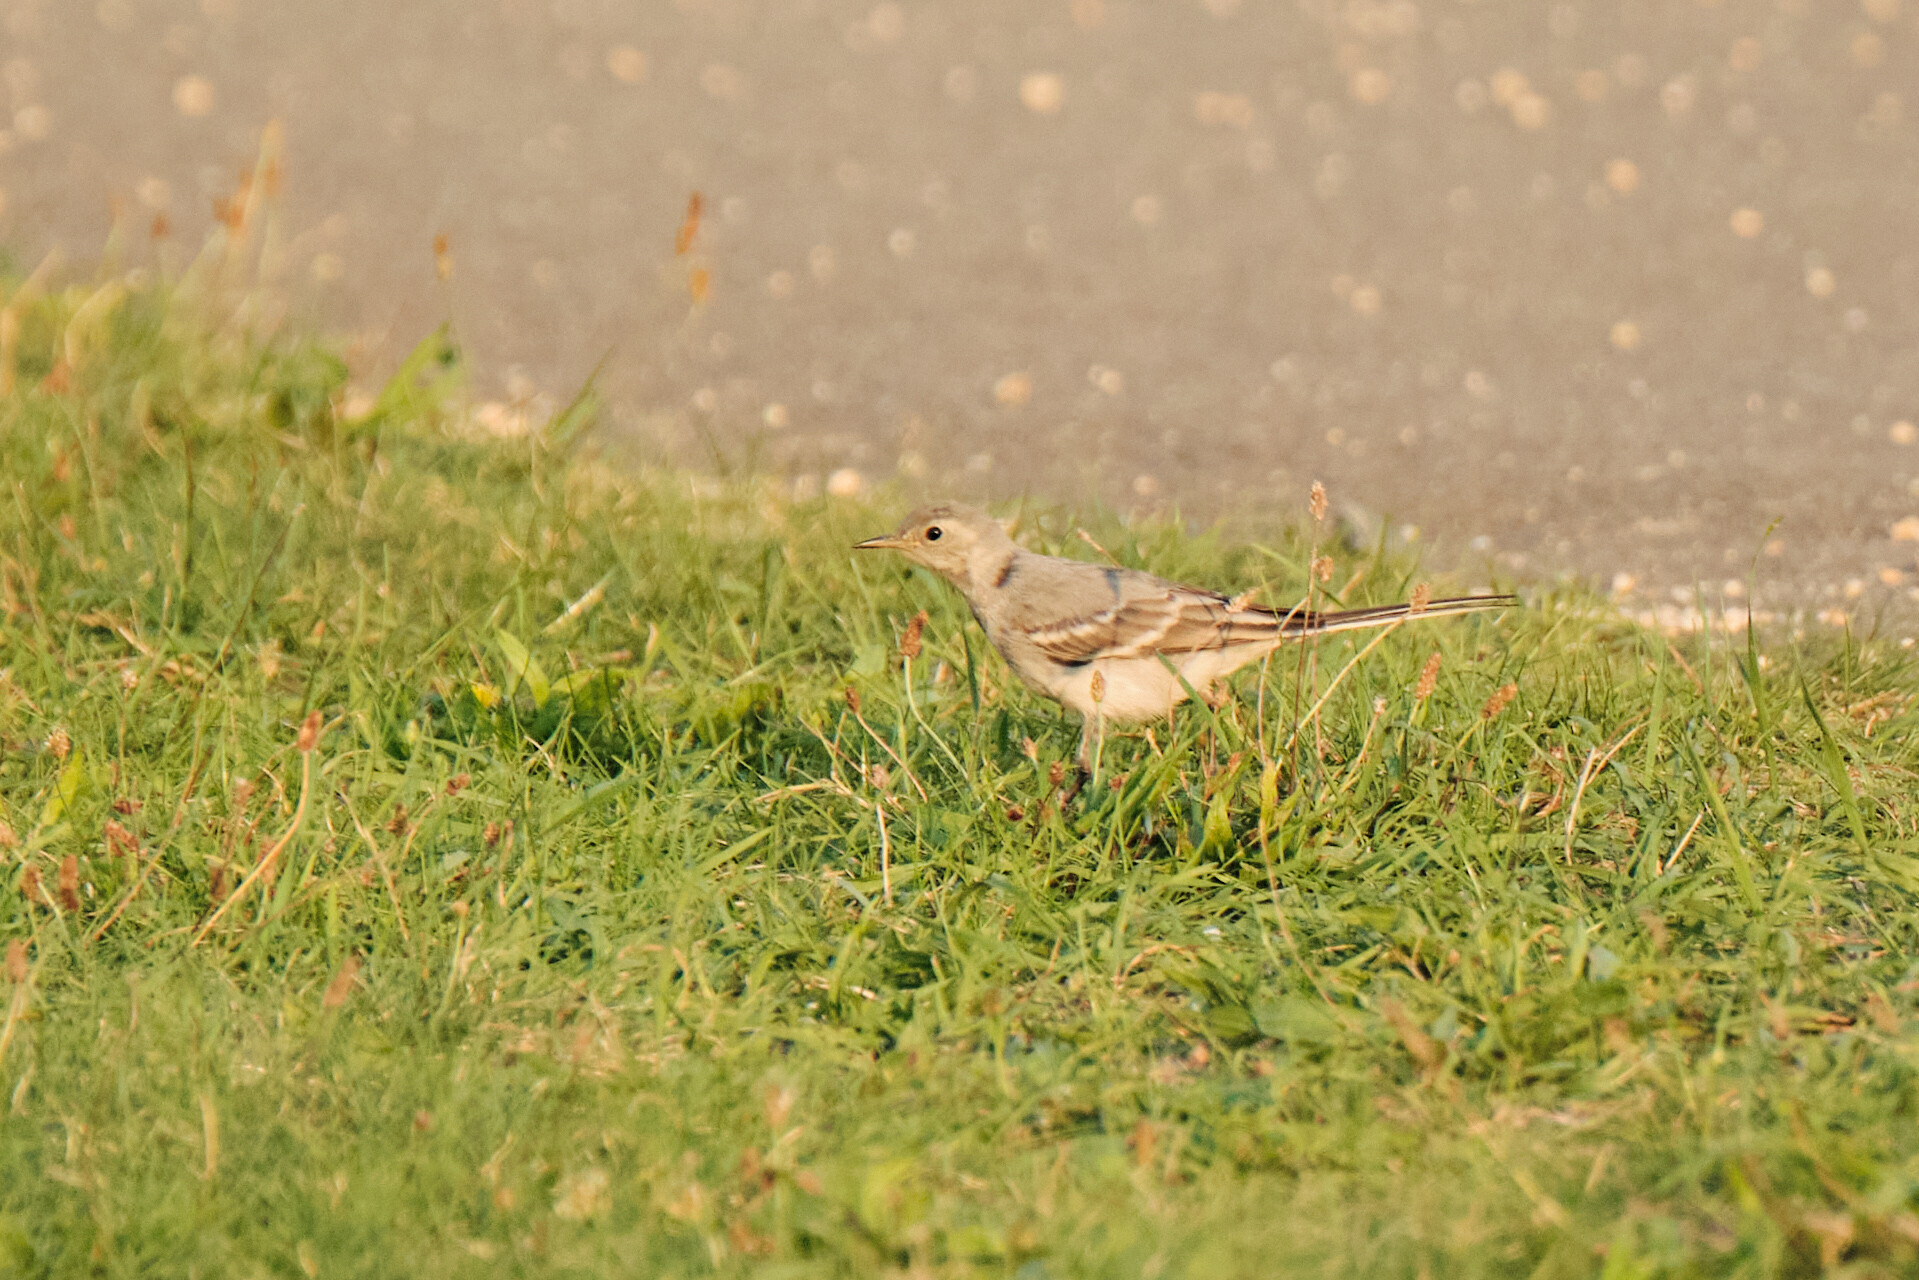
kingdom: Animalia
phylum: Chordata
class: Aves
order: Passeriformes
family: Motacillidae
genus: Motacilla
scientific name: Motacilla alba
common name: White wagtail
